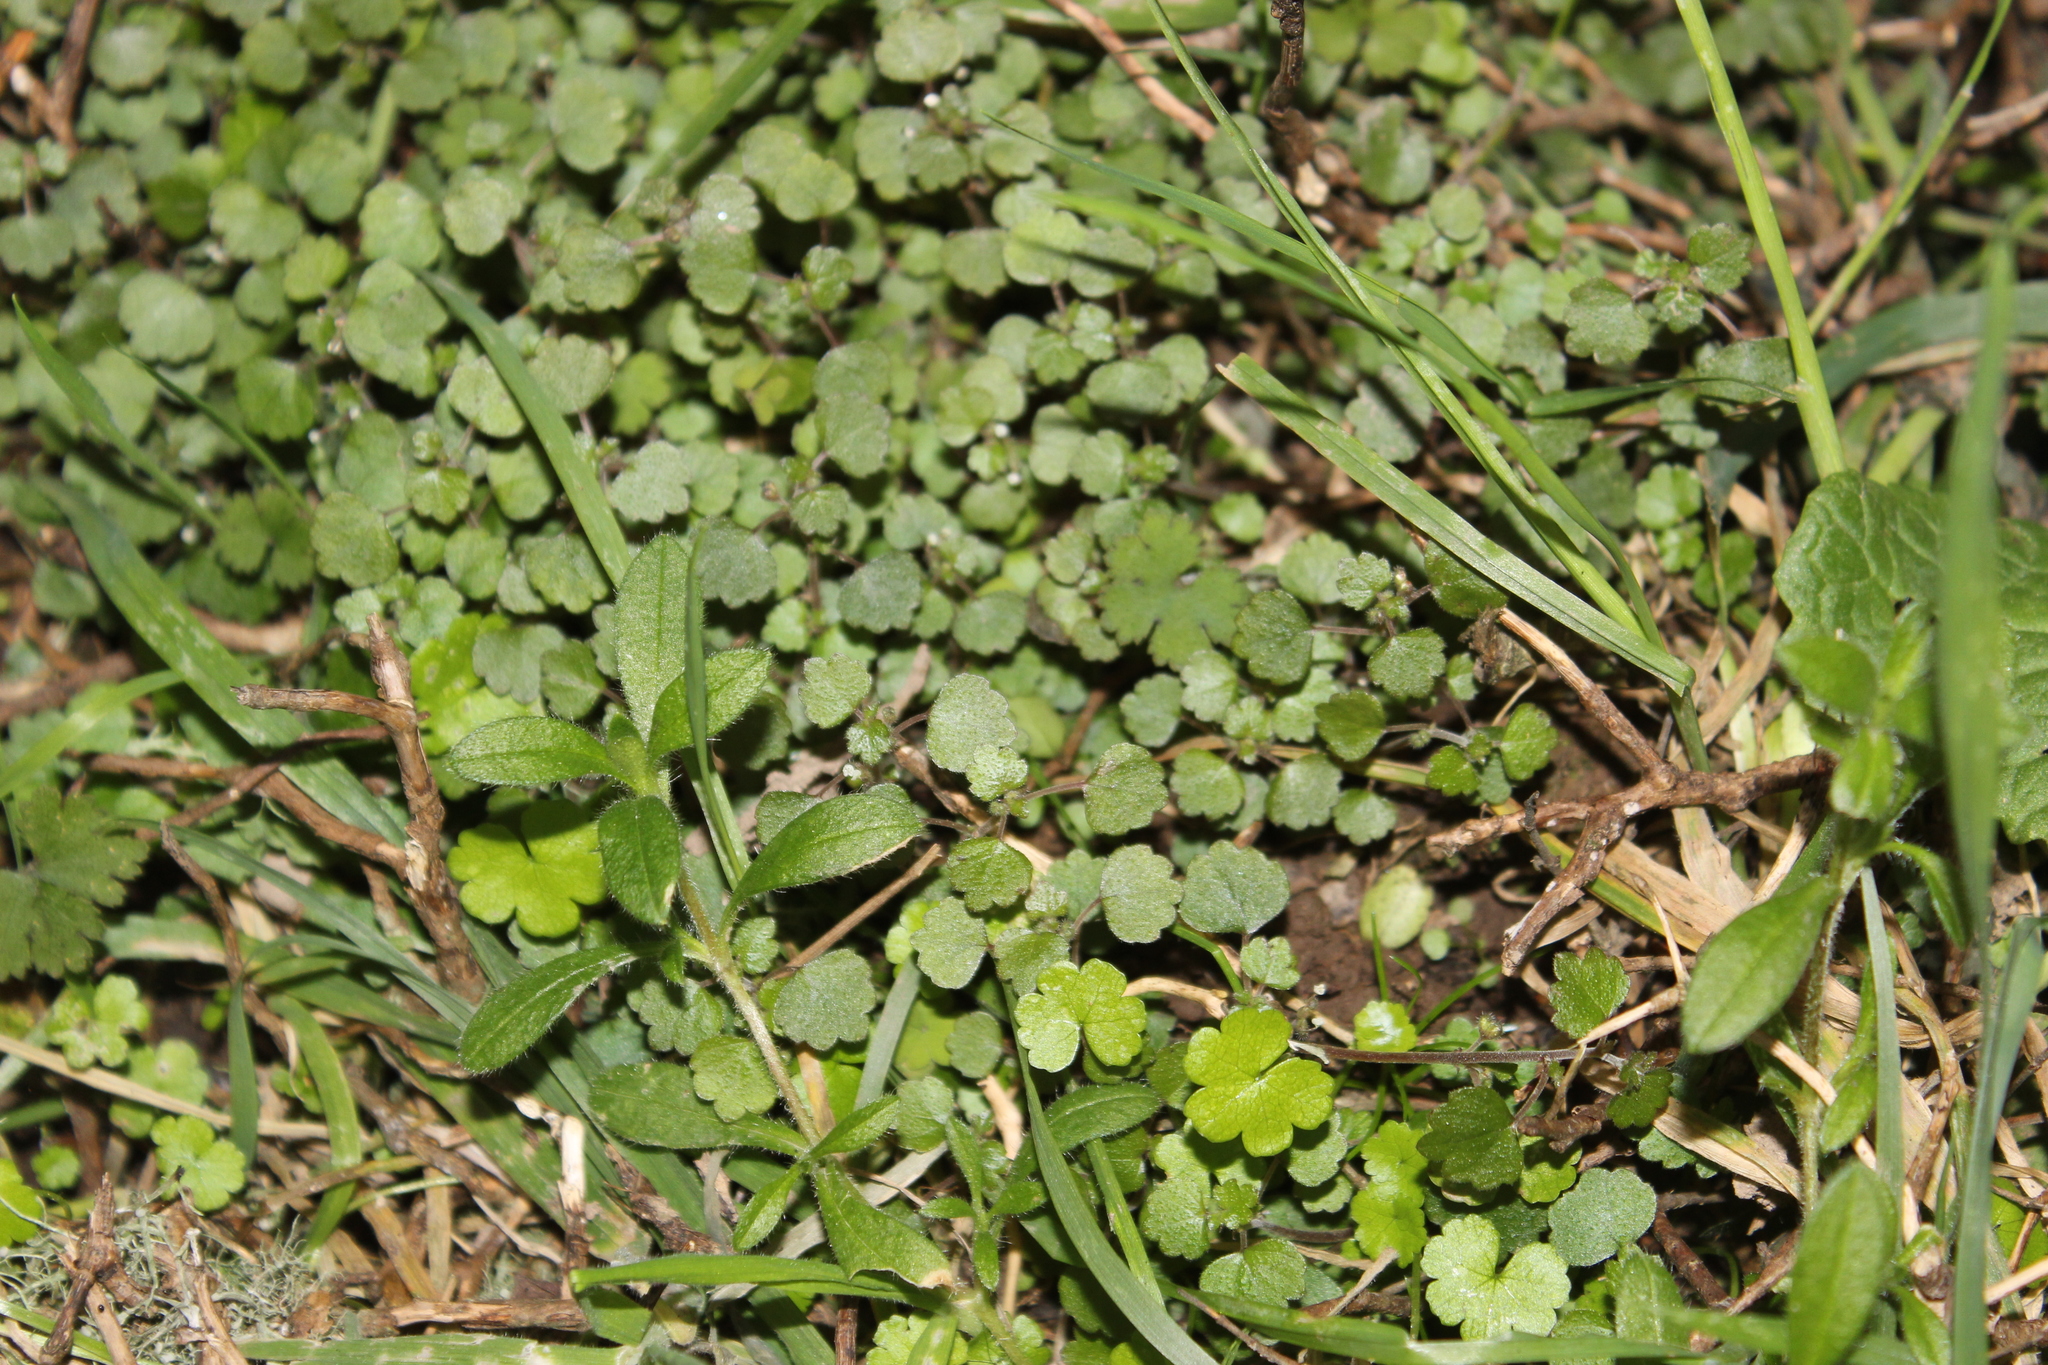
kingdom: Plantae
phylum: Tracheophyta
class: Magnoliopsida
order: Rosales
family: Urticaceae
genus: Australina
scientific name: Australina pusilla
